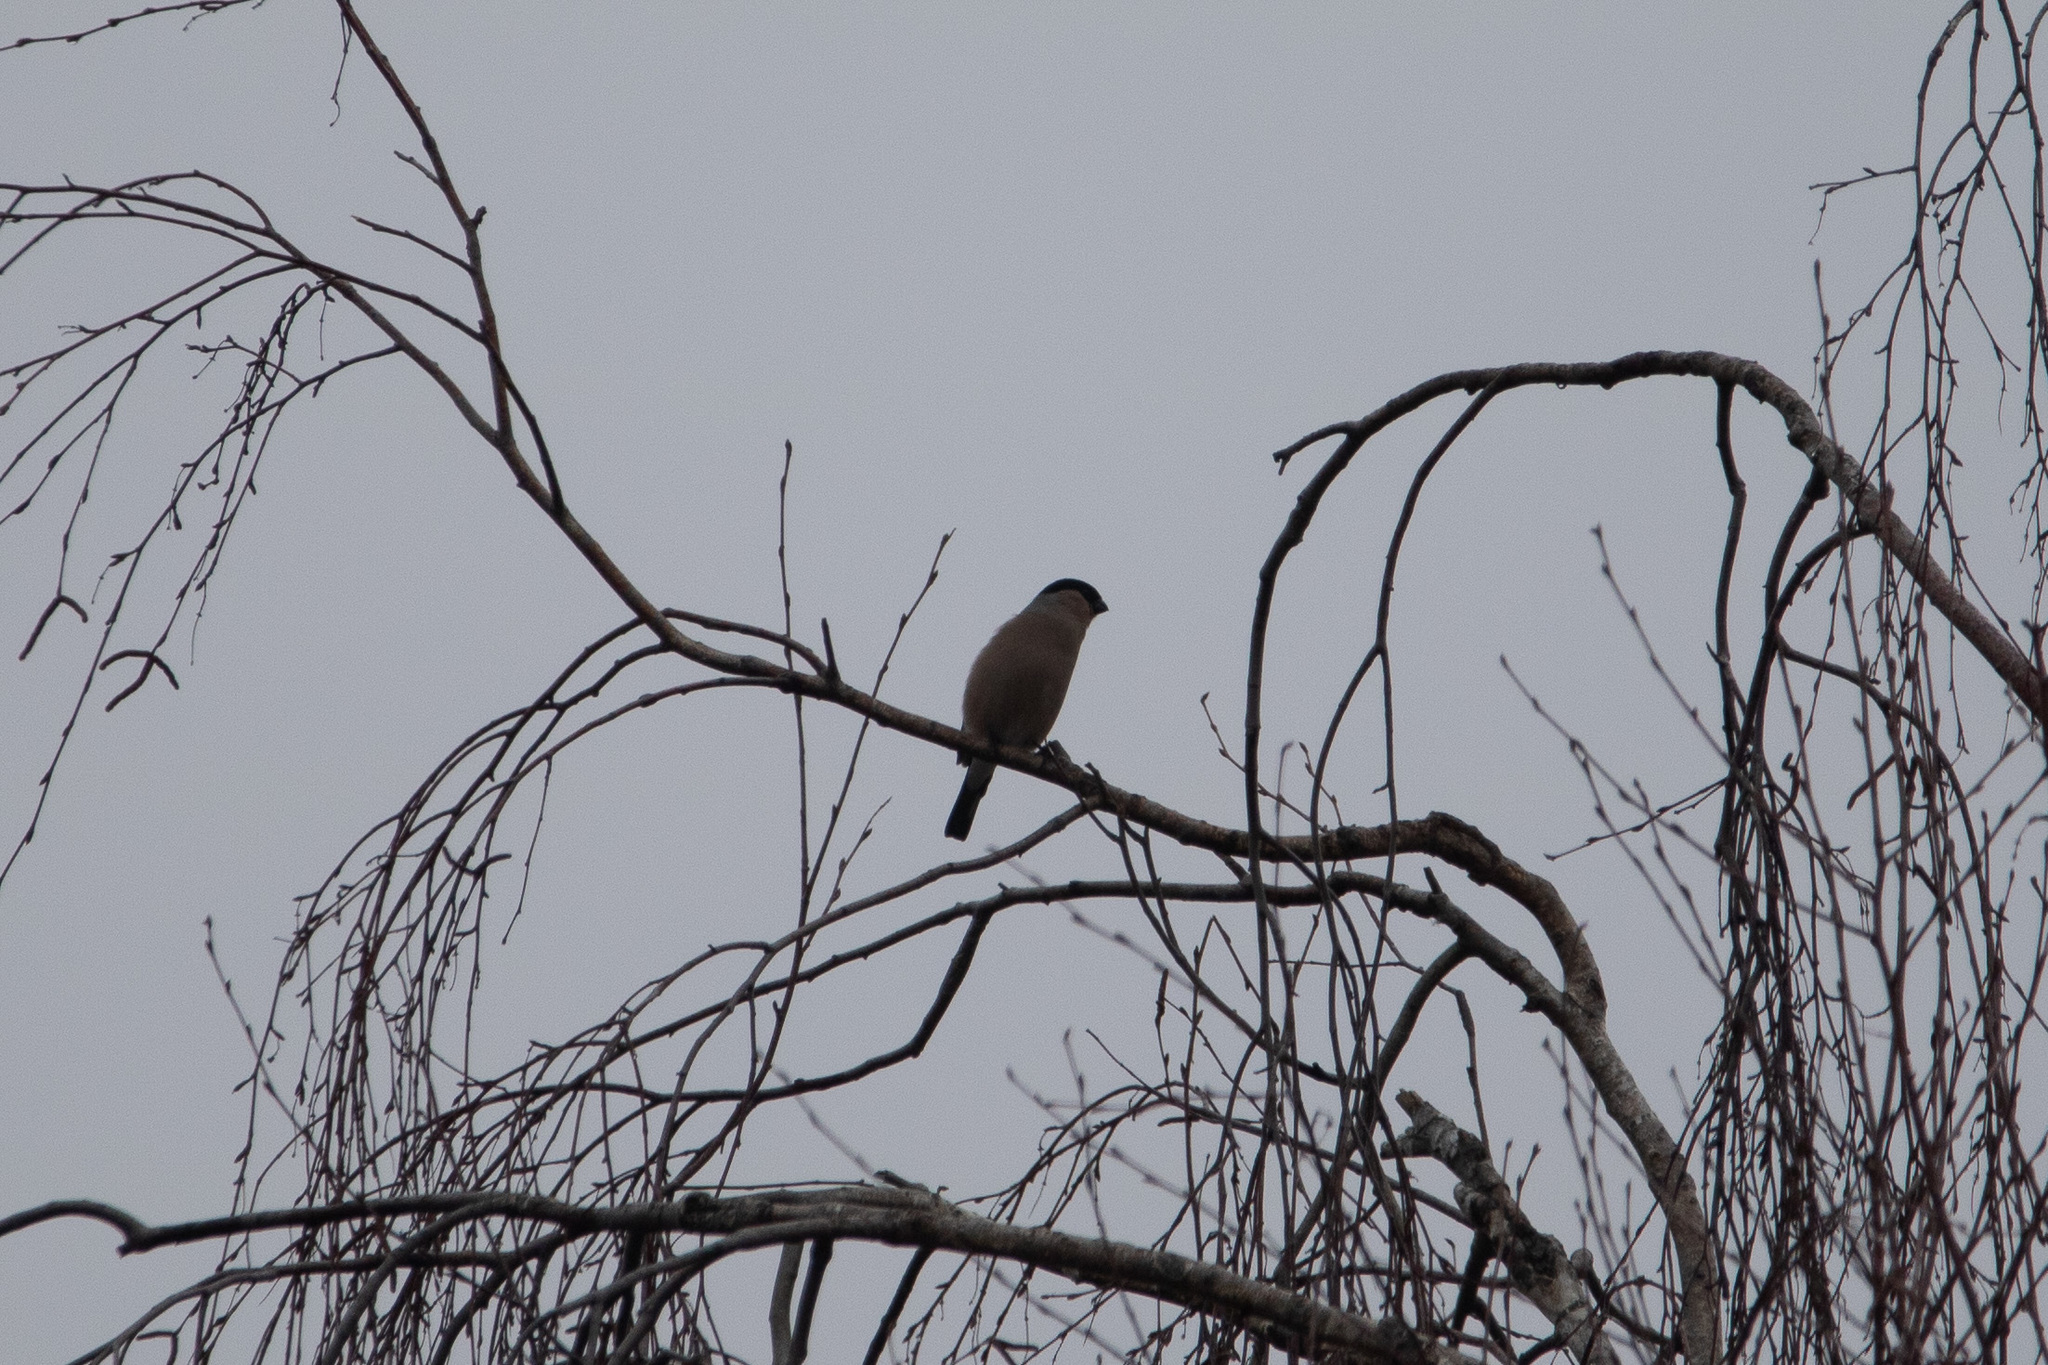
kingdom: Animalia
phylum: Chordata
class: Aves
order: Passeriformes
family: Fringillidae
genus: Pyrrhula
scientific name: Pyrrhula pyrrhula
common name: Eurasian bullfinch
